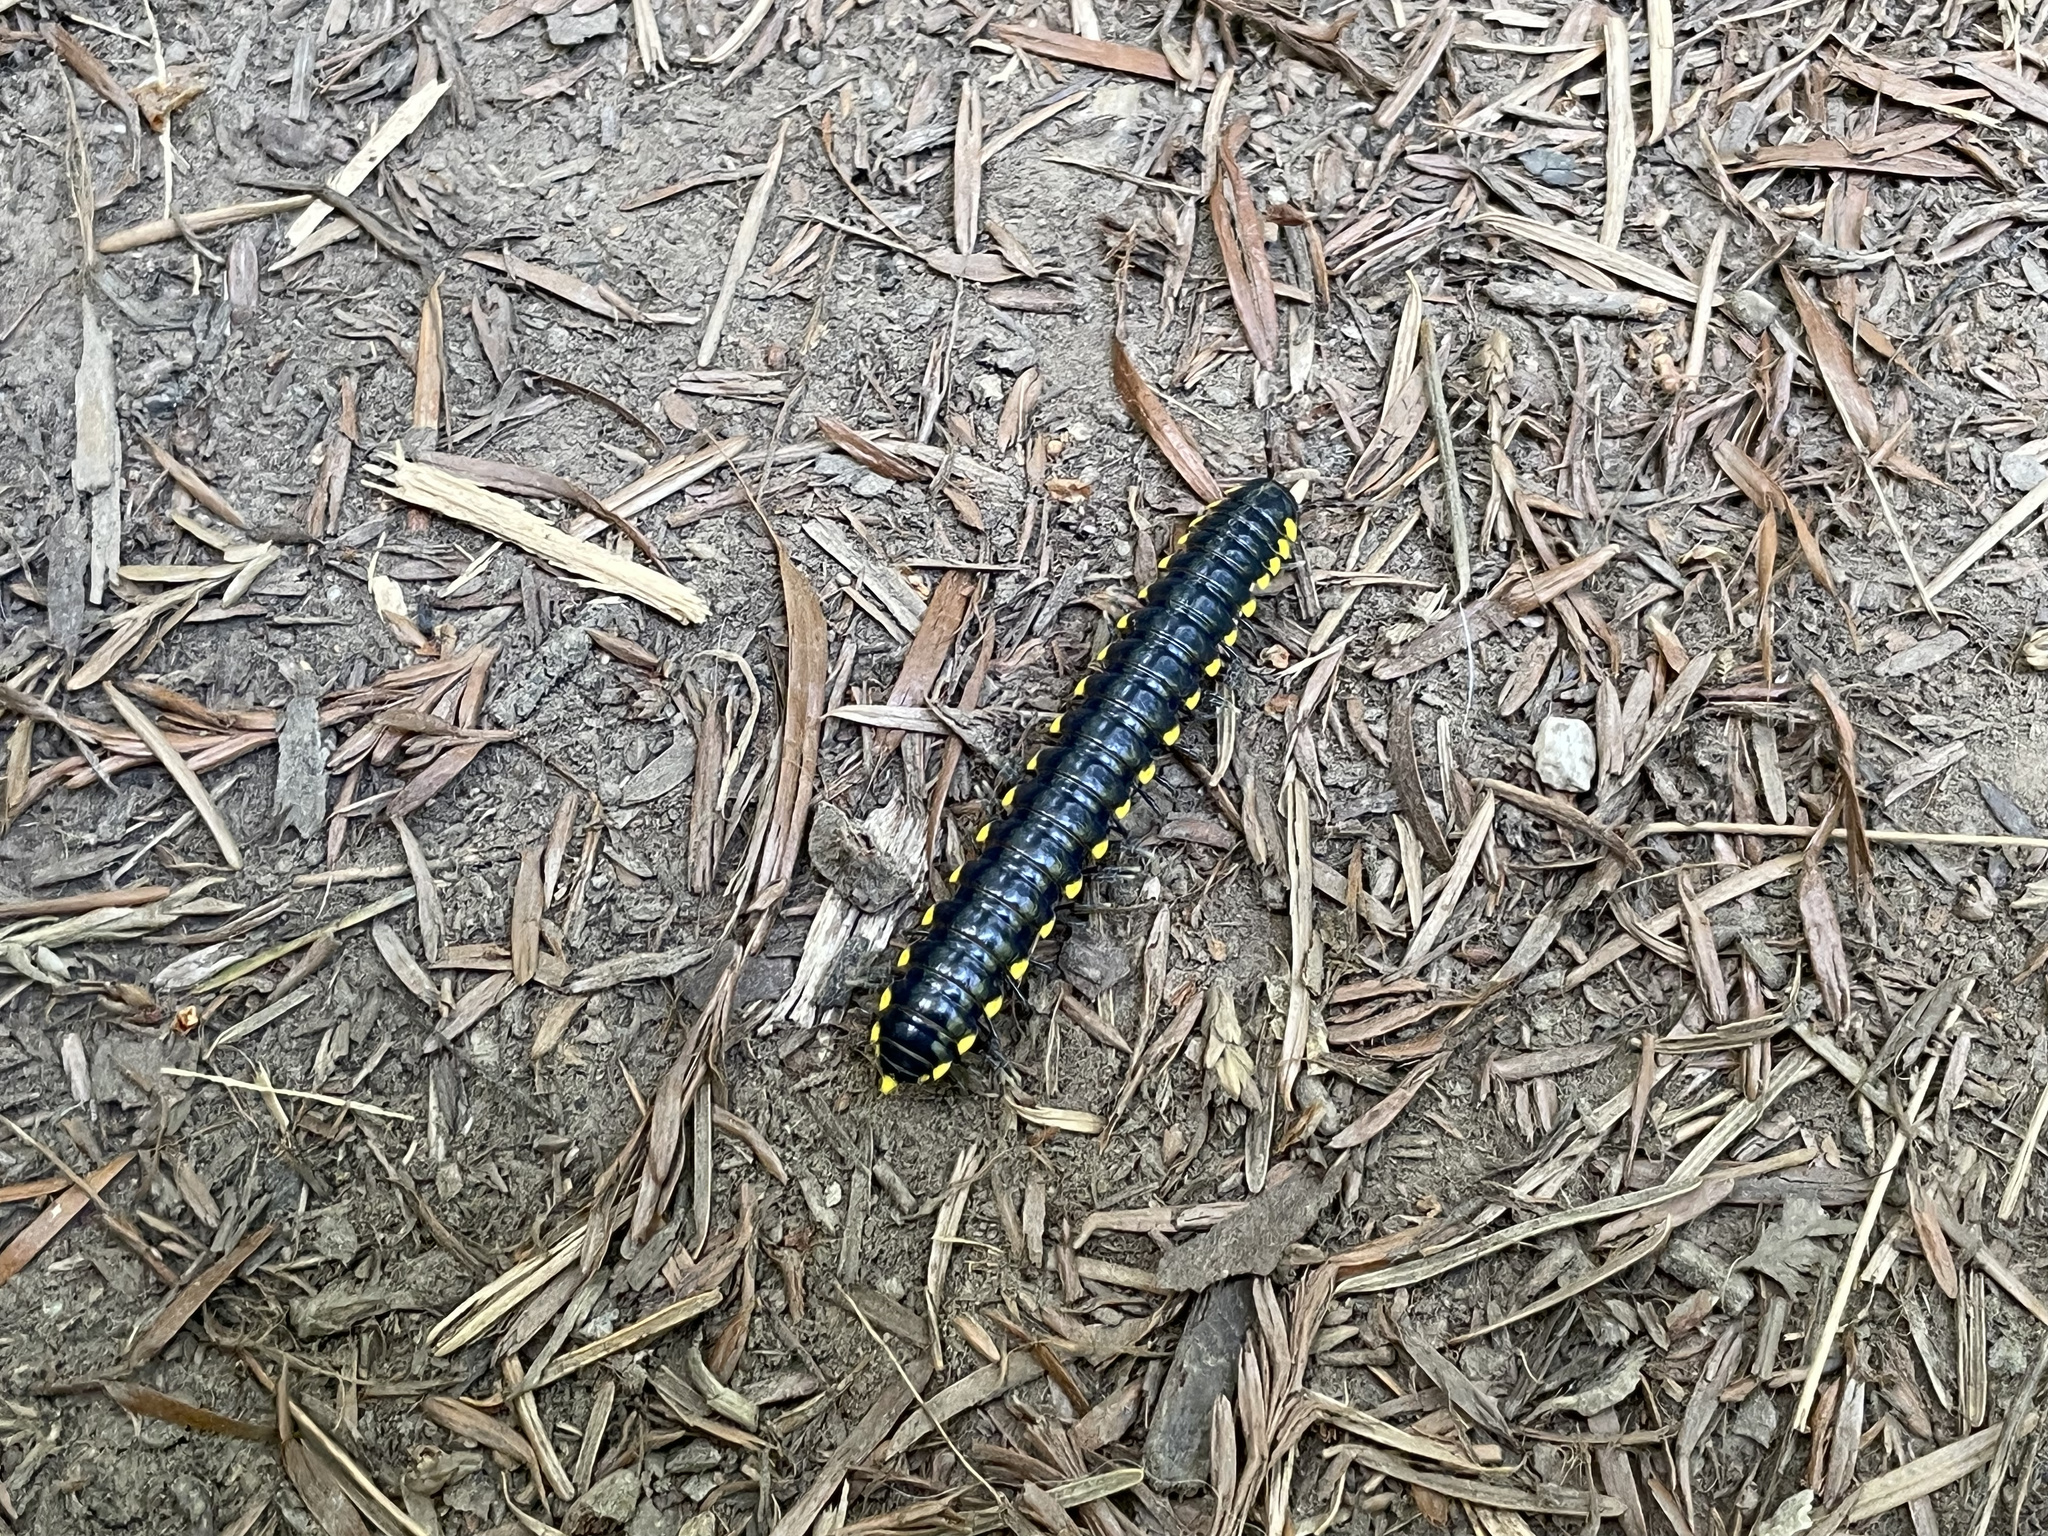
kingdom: Animalia
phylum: Arthropoda
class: Diplopoda
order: Polydesmida
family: Xystodesmidae
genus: Harpaphe
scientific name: Harpaphe haydeniana
